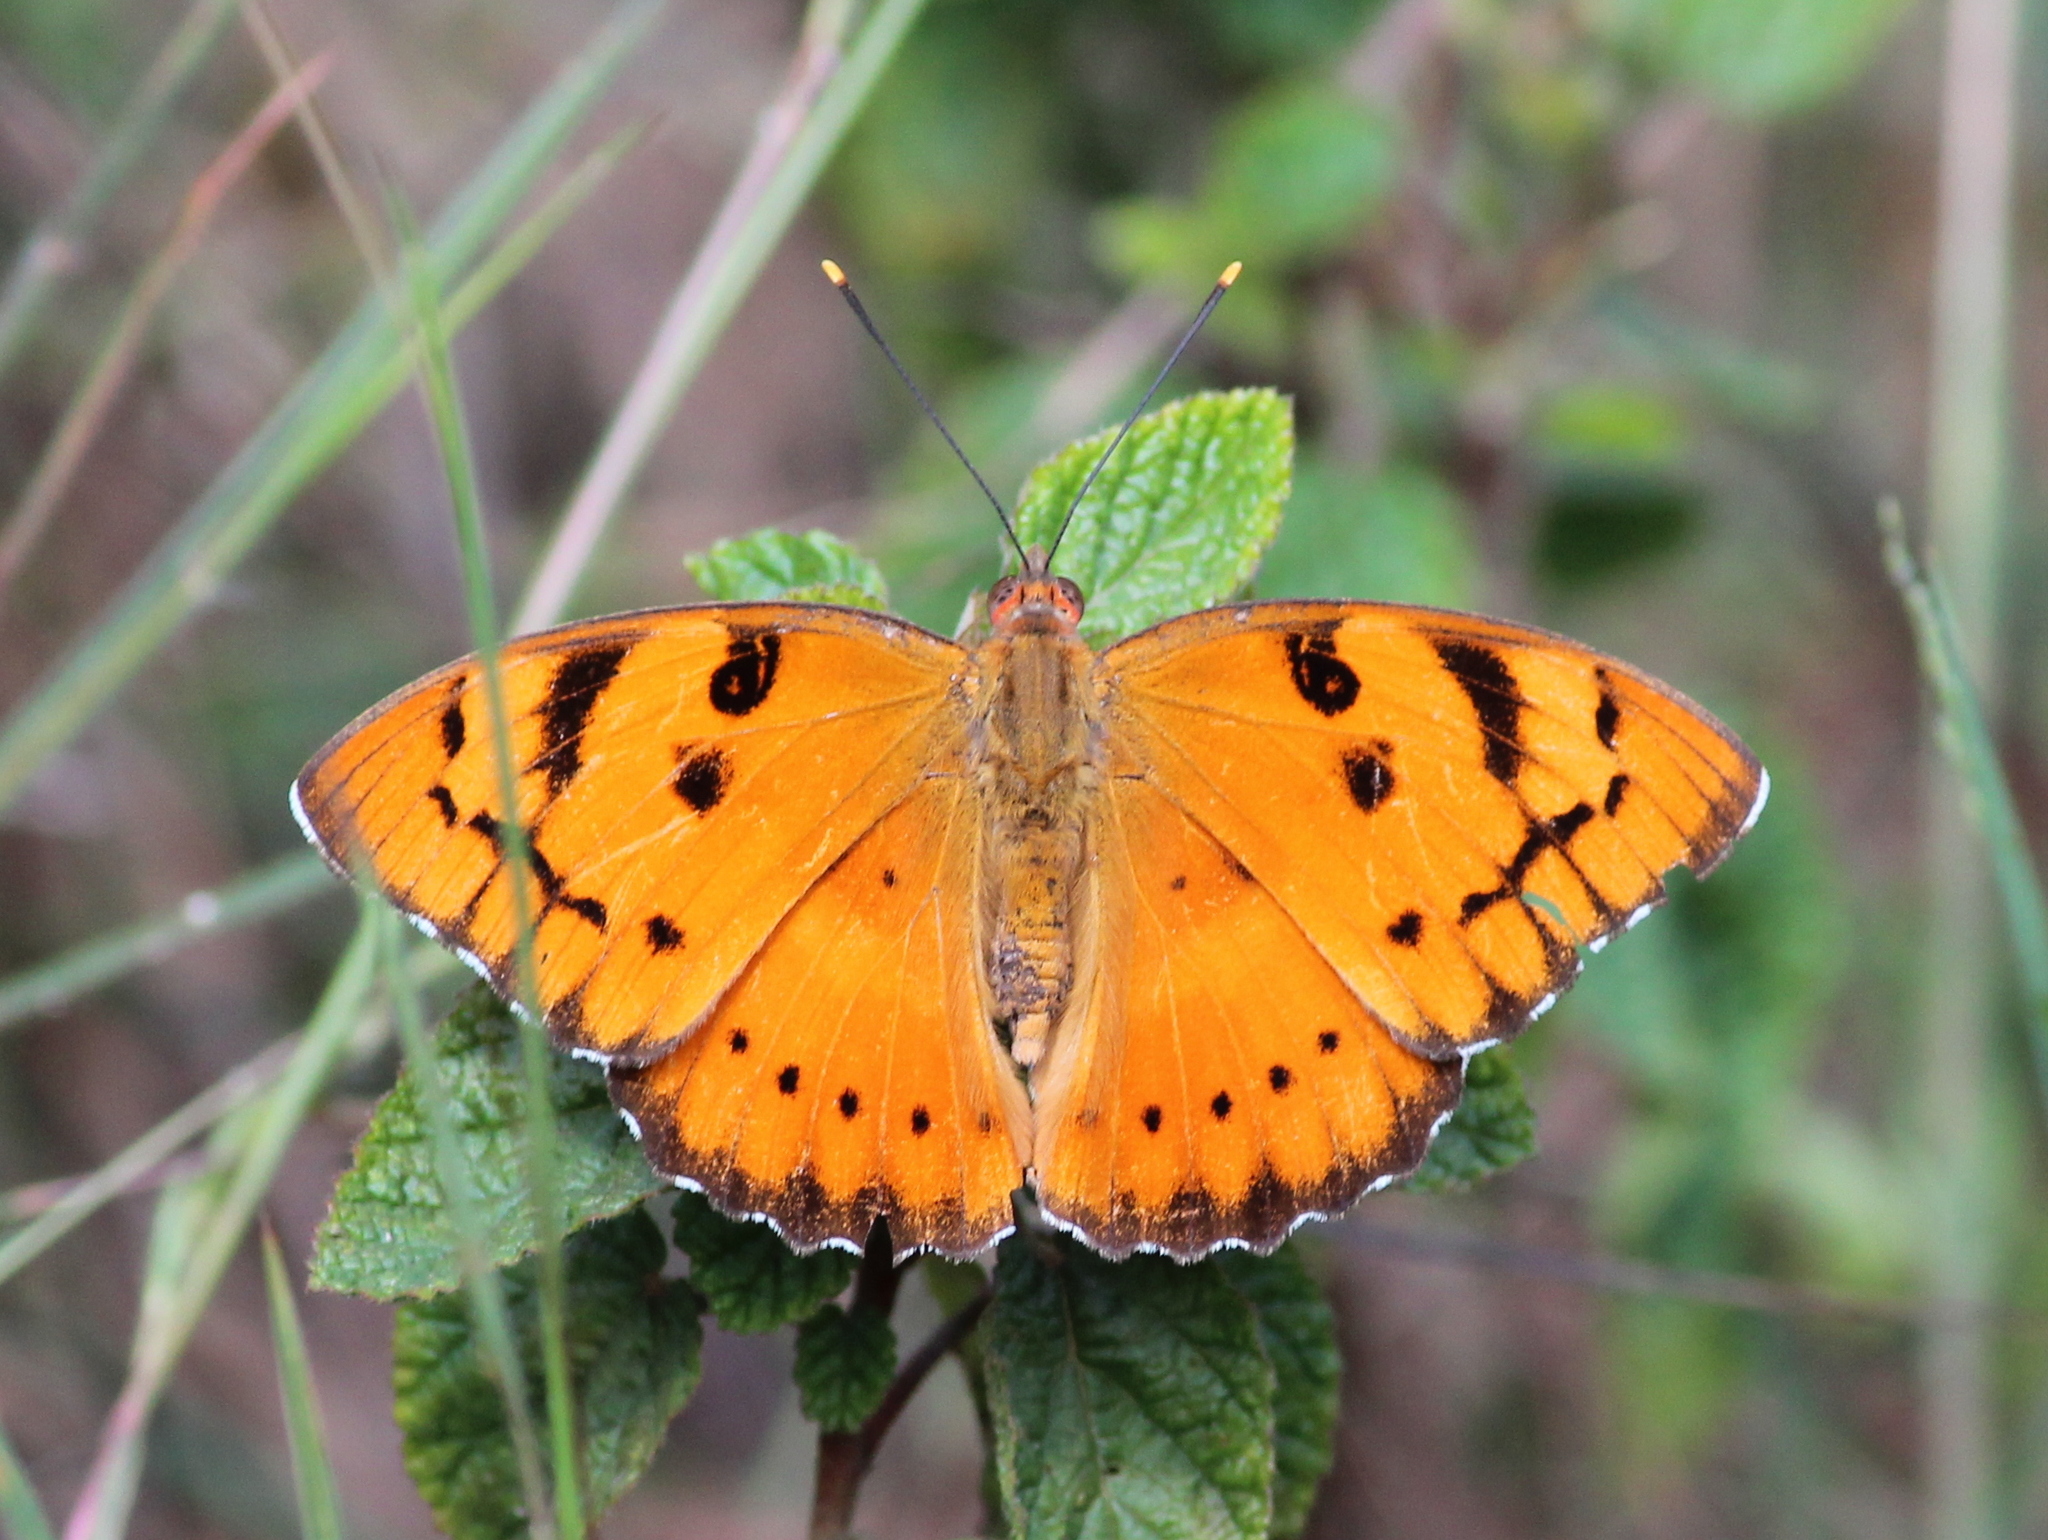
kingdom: Animalia
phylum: Arthropoda
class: Insecta
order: Lepidoptera
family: Nymphalidae
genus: Euthalia
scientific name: Euthalia nais
